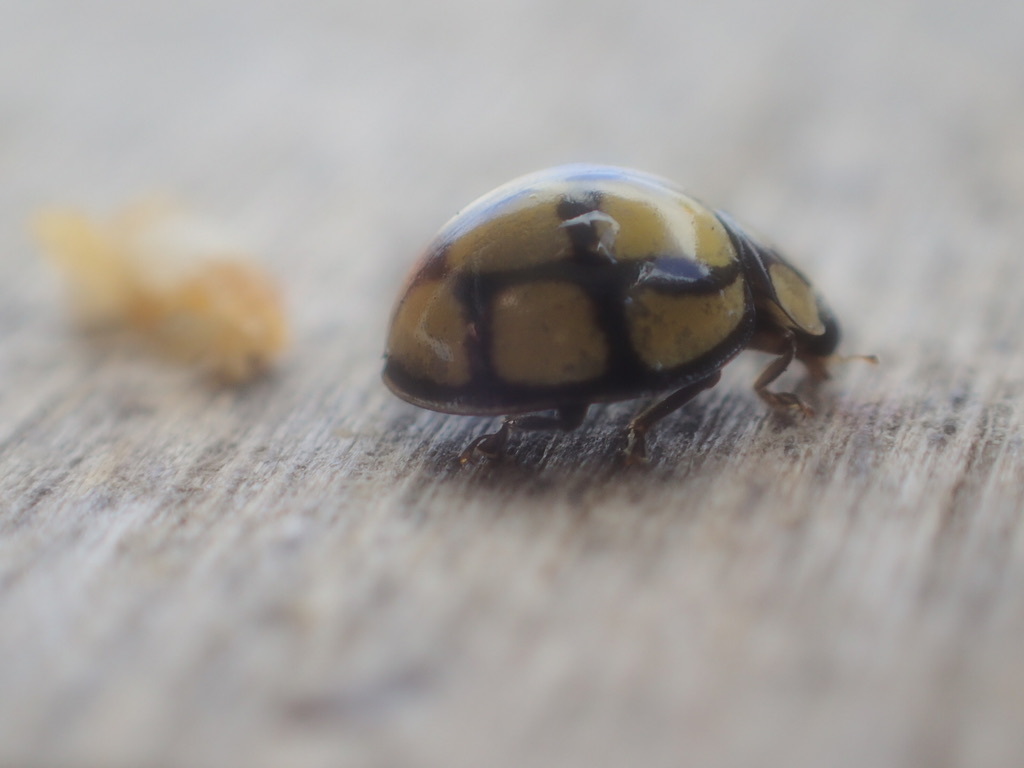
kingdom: Animalia
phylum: Arthropoda
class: Insecta
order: Coleoptera
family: Coccinellidae
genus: Harmonia
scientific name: Harmonia
